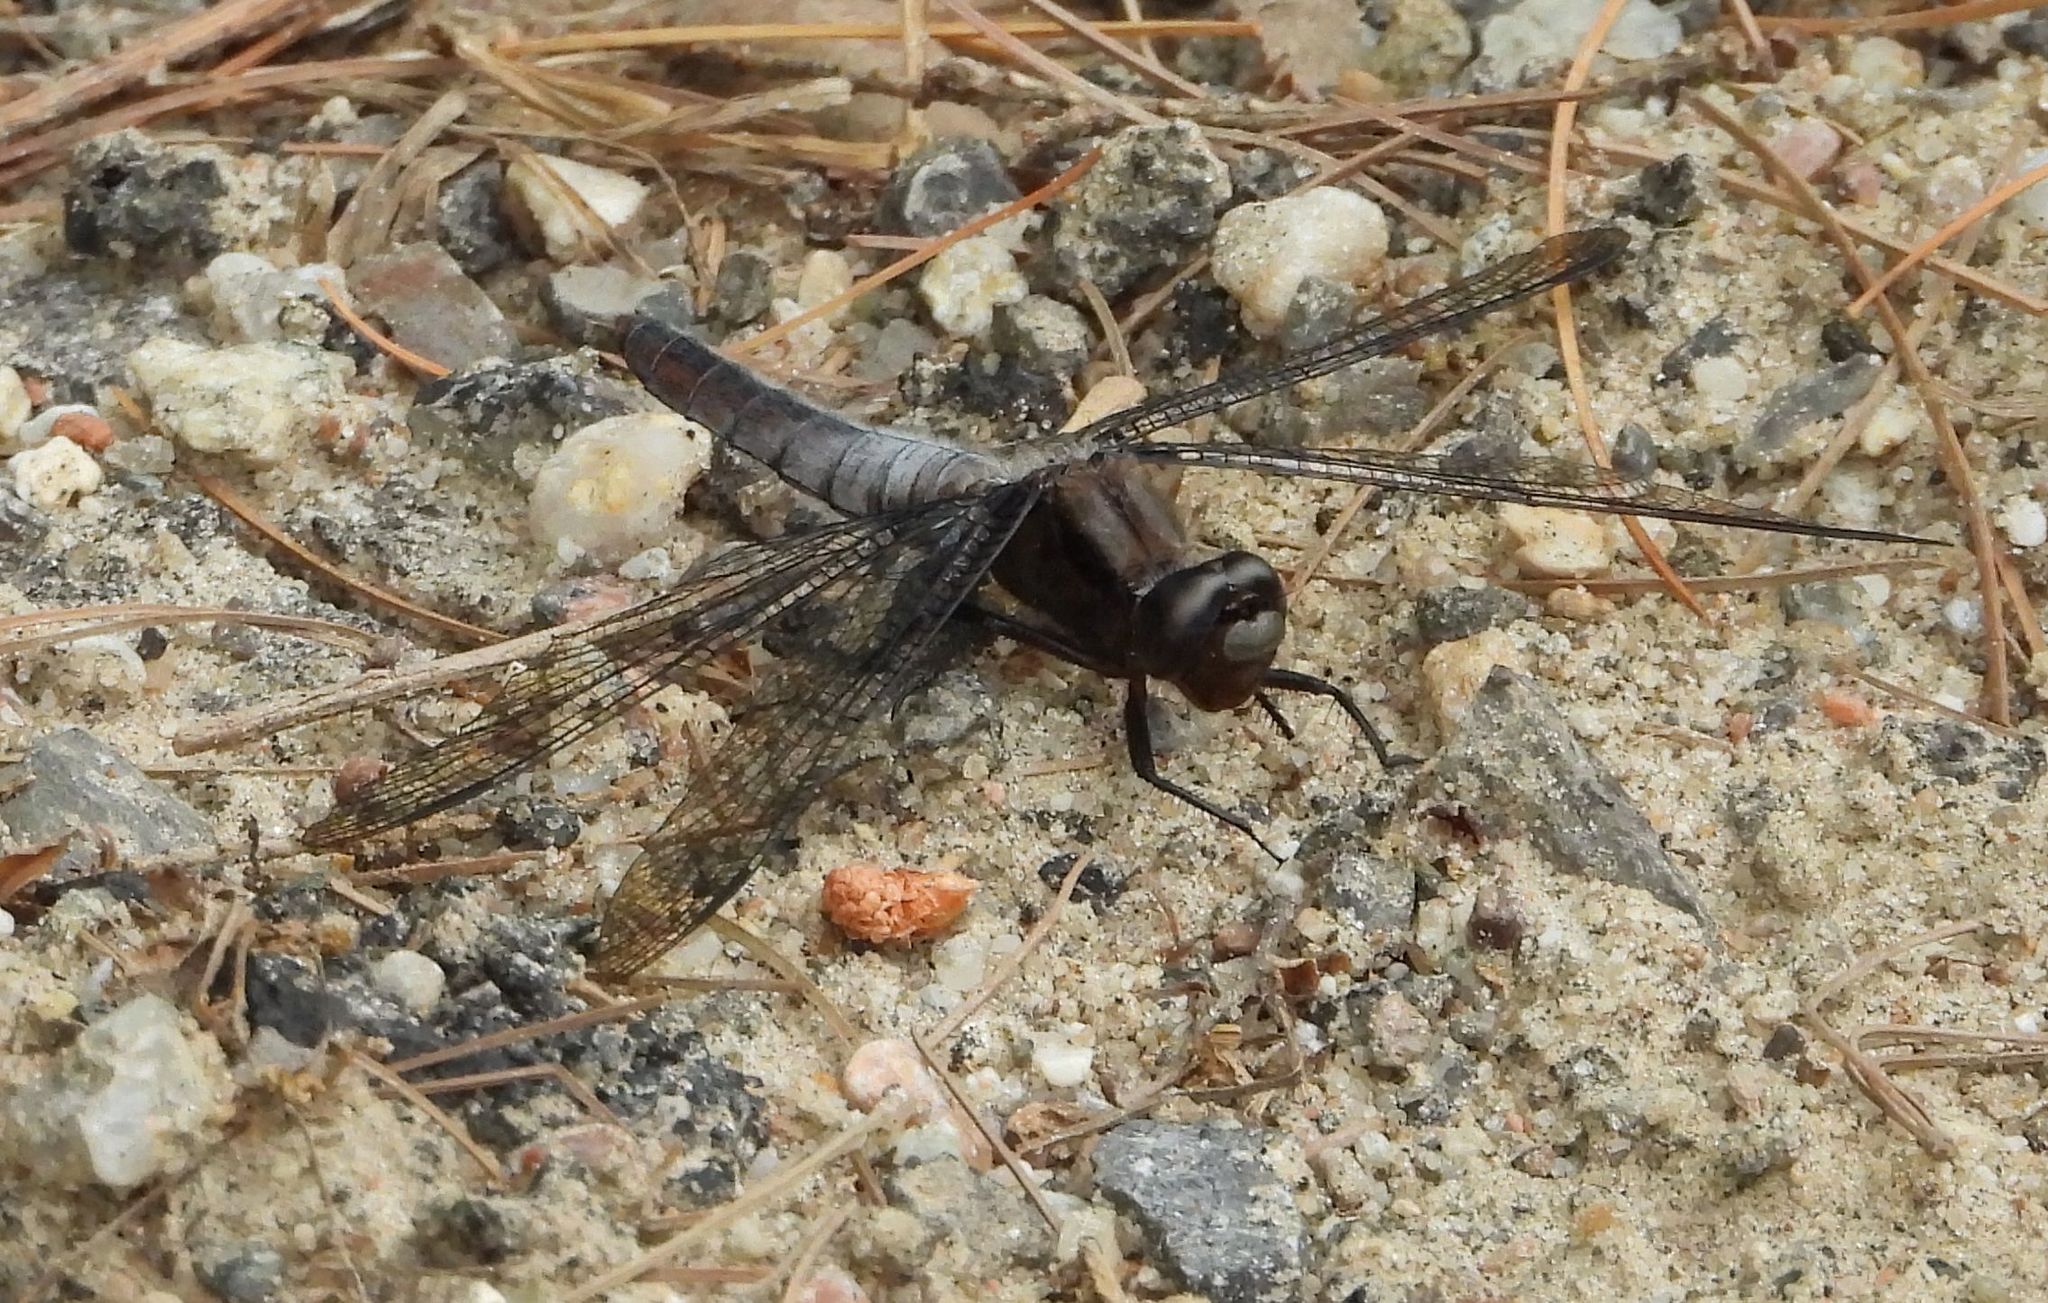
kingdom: Animalia
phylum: Arthropoda
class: Insecta
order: Odonata
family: Libellulidae
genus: Ladona
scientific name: Ladona julia
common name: Chalk-fronted corporal
